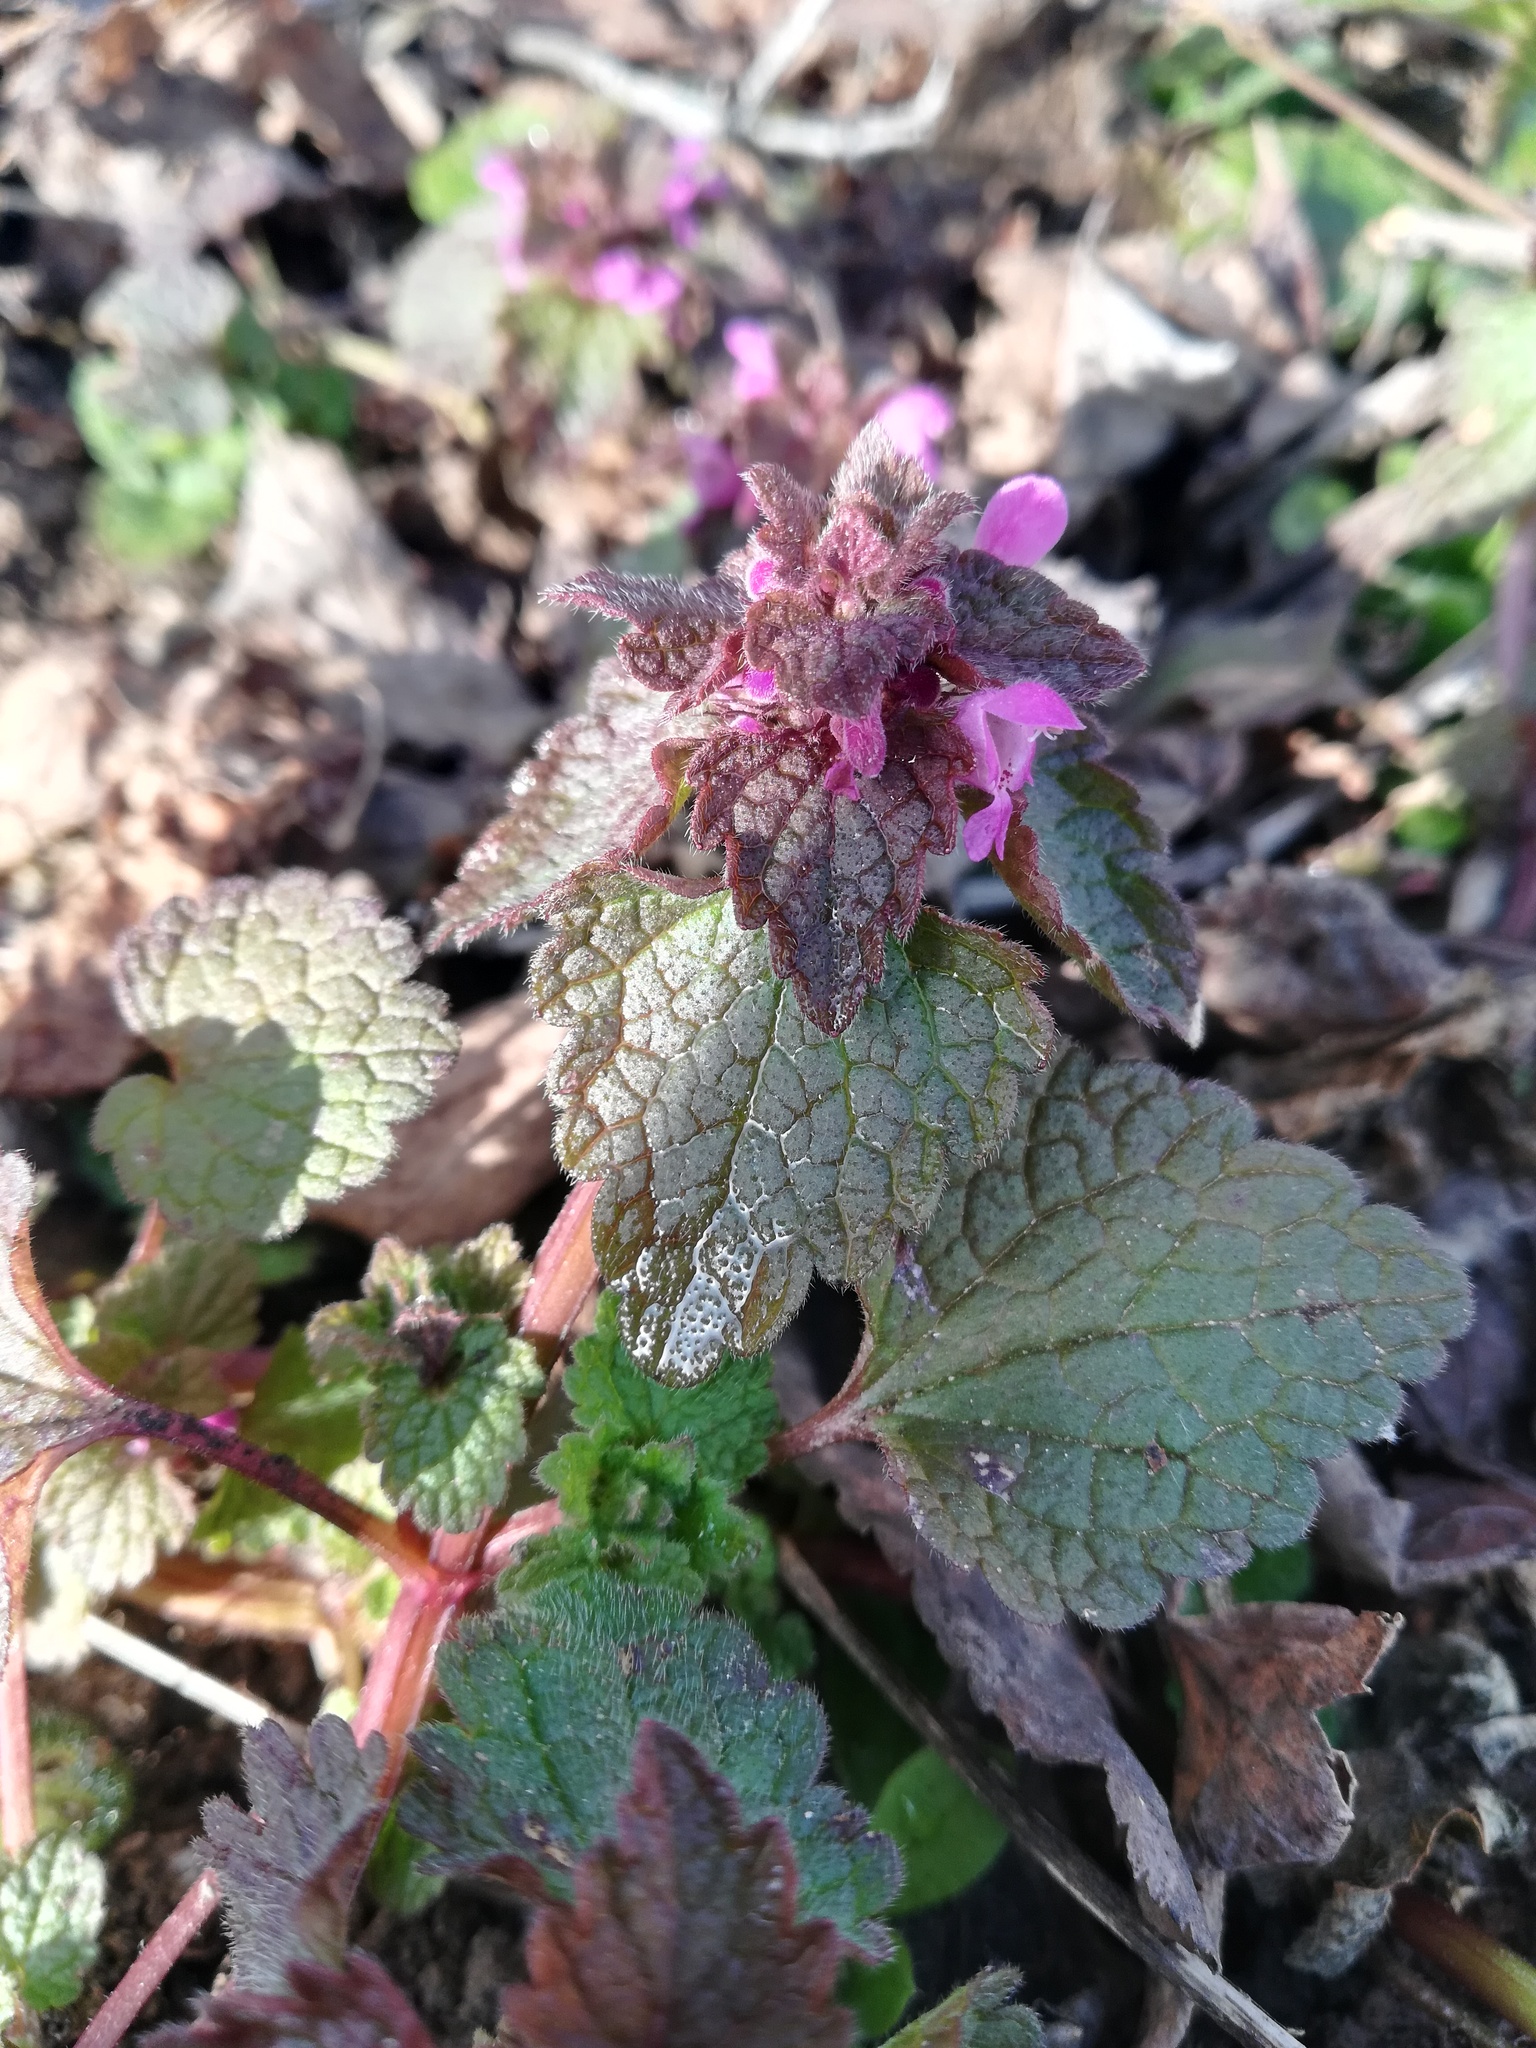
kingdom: Plantae
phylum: Tracheophyta
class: Magnoliopsida
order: Lamiales
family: Lamiaceae
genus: Lamium
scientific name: Lamium purpureum
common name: Red dead-nettle
